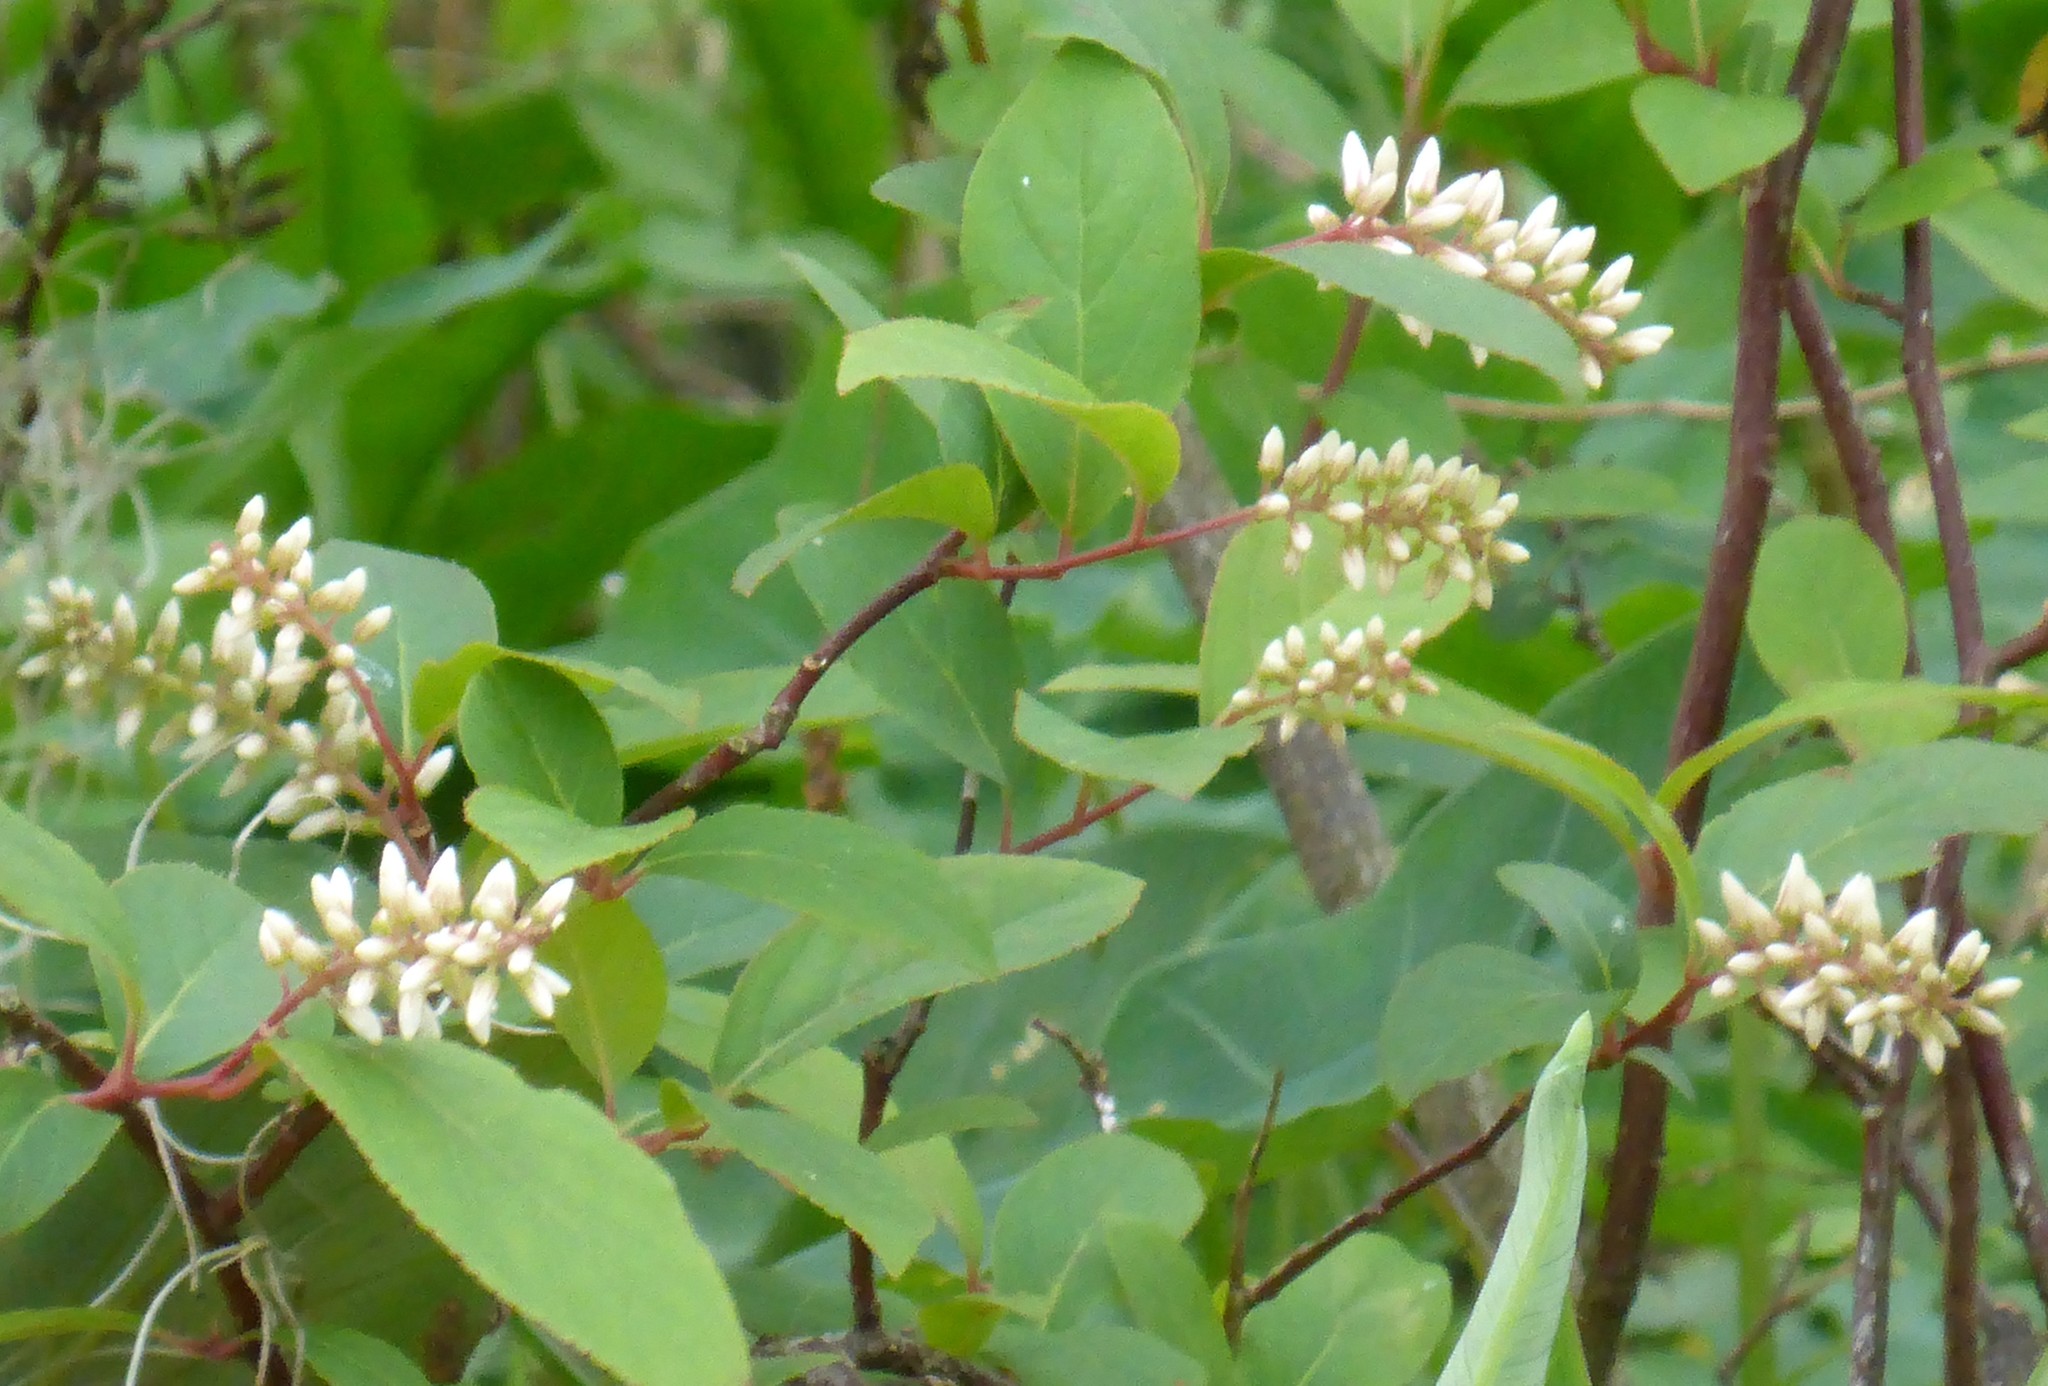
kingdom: Plantae
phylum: Tracheophyta
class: Magnoliopsida
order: Saxifragales
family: Iteaceae
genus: Itea
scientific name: Itea virginica
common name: Sweetspire
